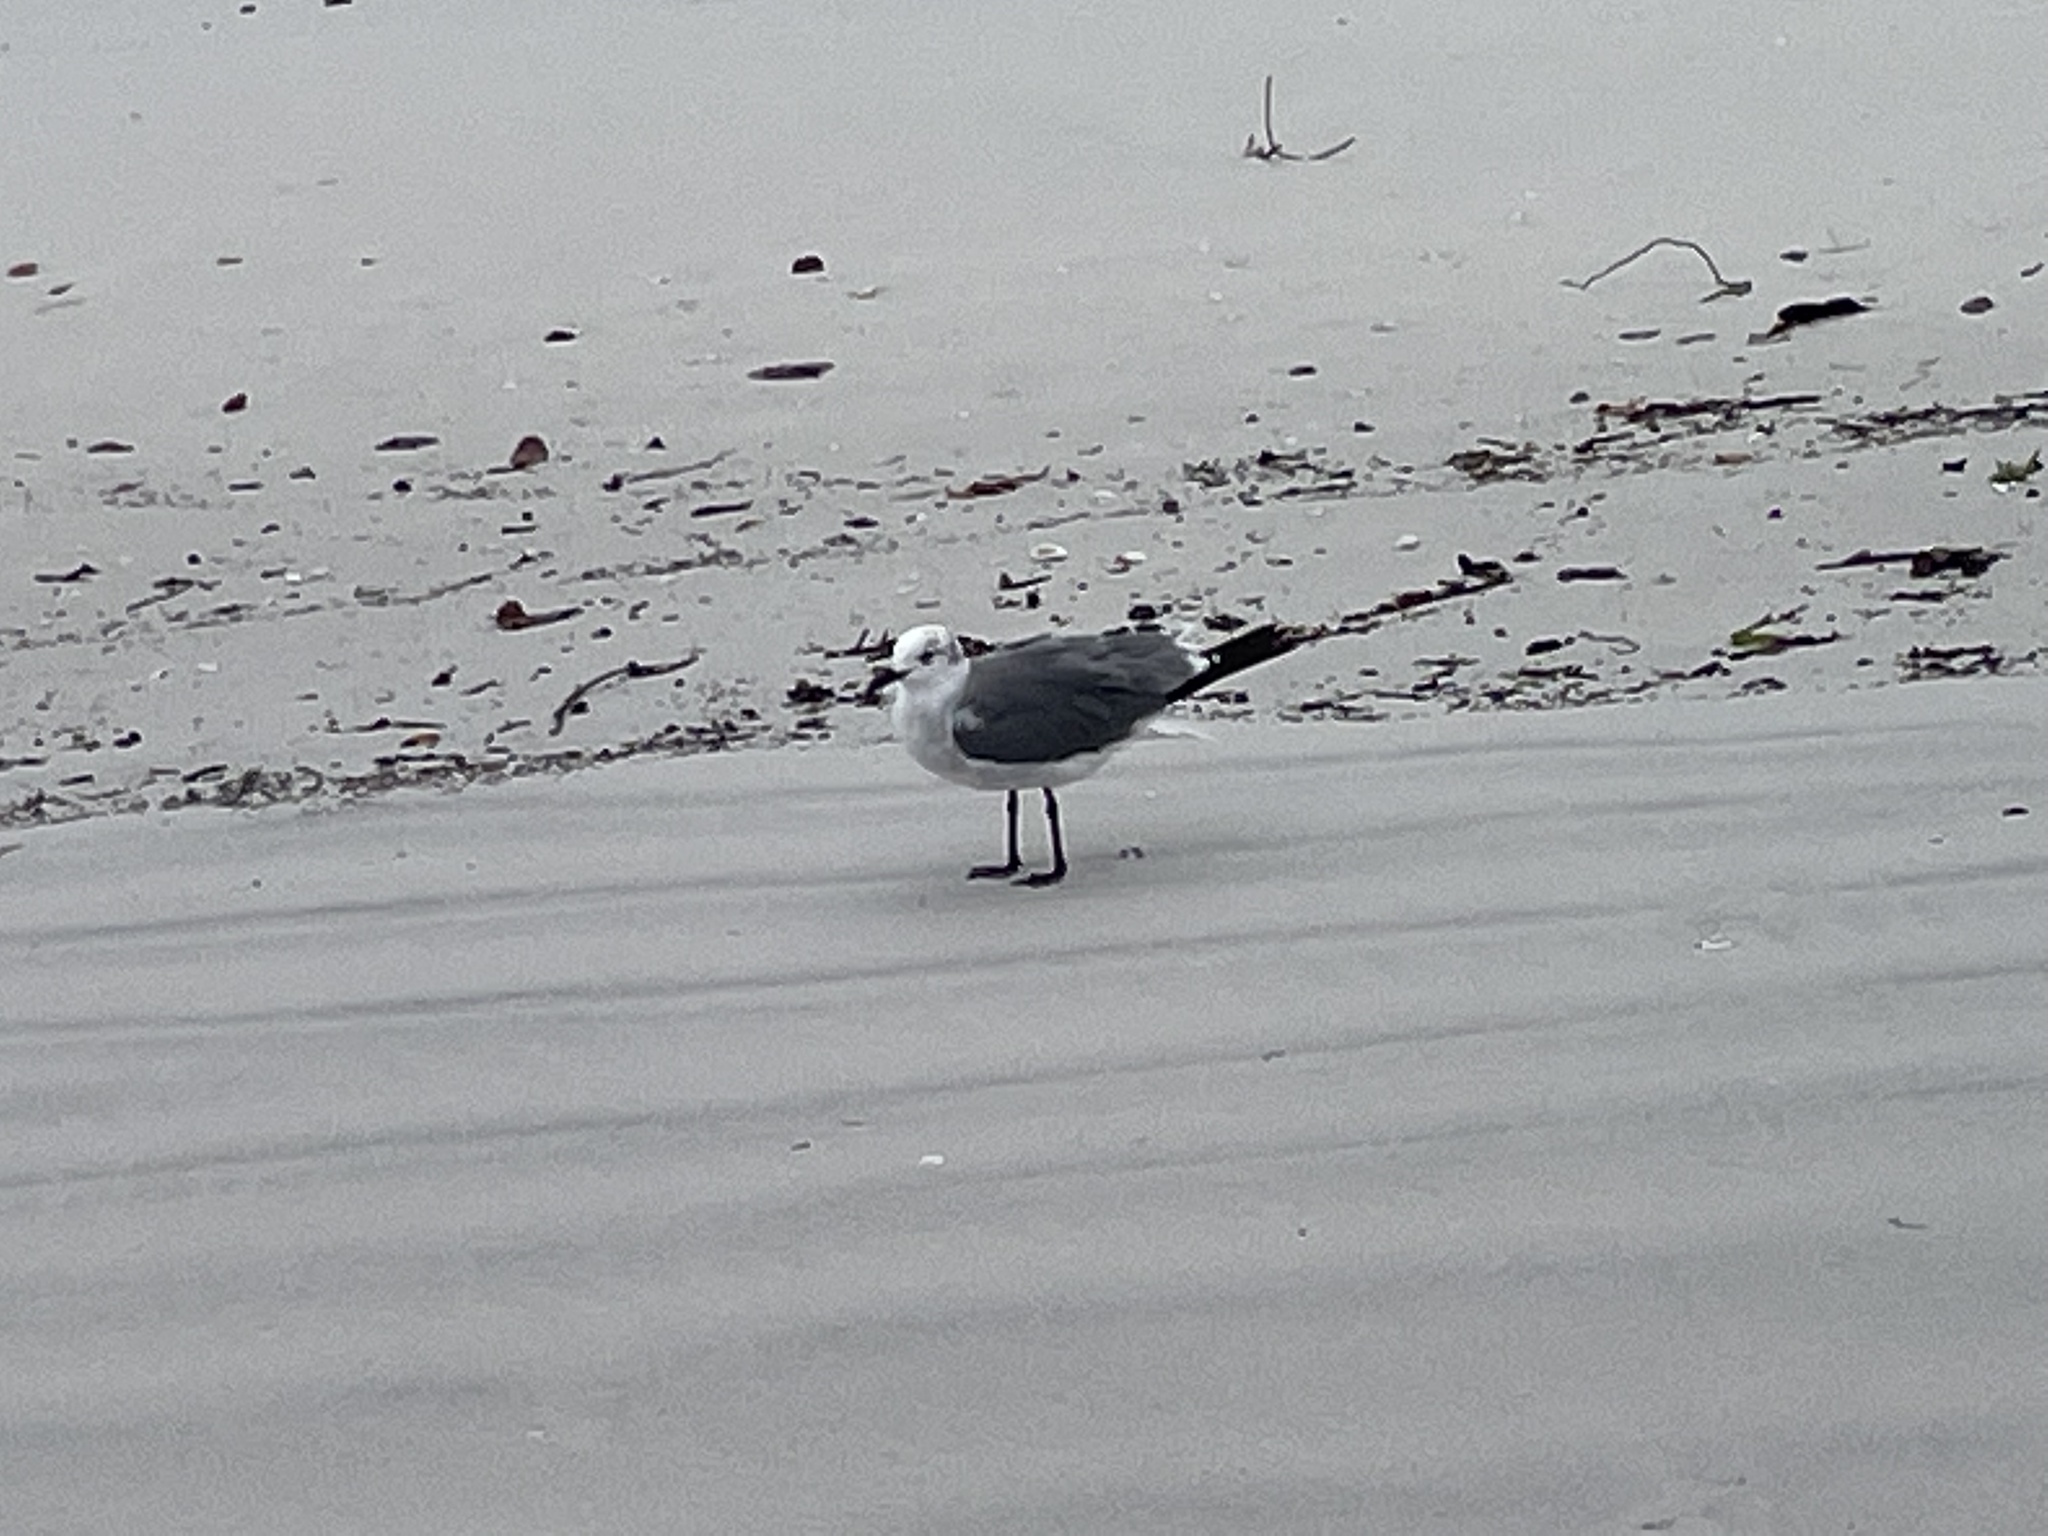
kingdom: Animalia
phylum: Chordata
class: Aves
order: Charadriiformes
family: Laridae
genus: Leucophaeus
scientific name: Leucophaeus atricilla
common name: Laughing gull
